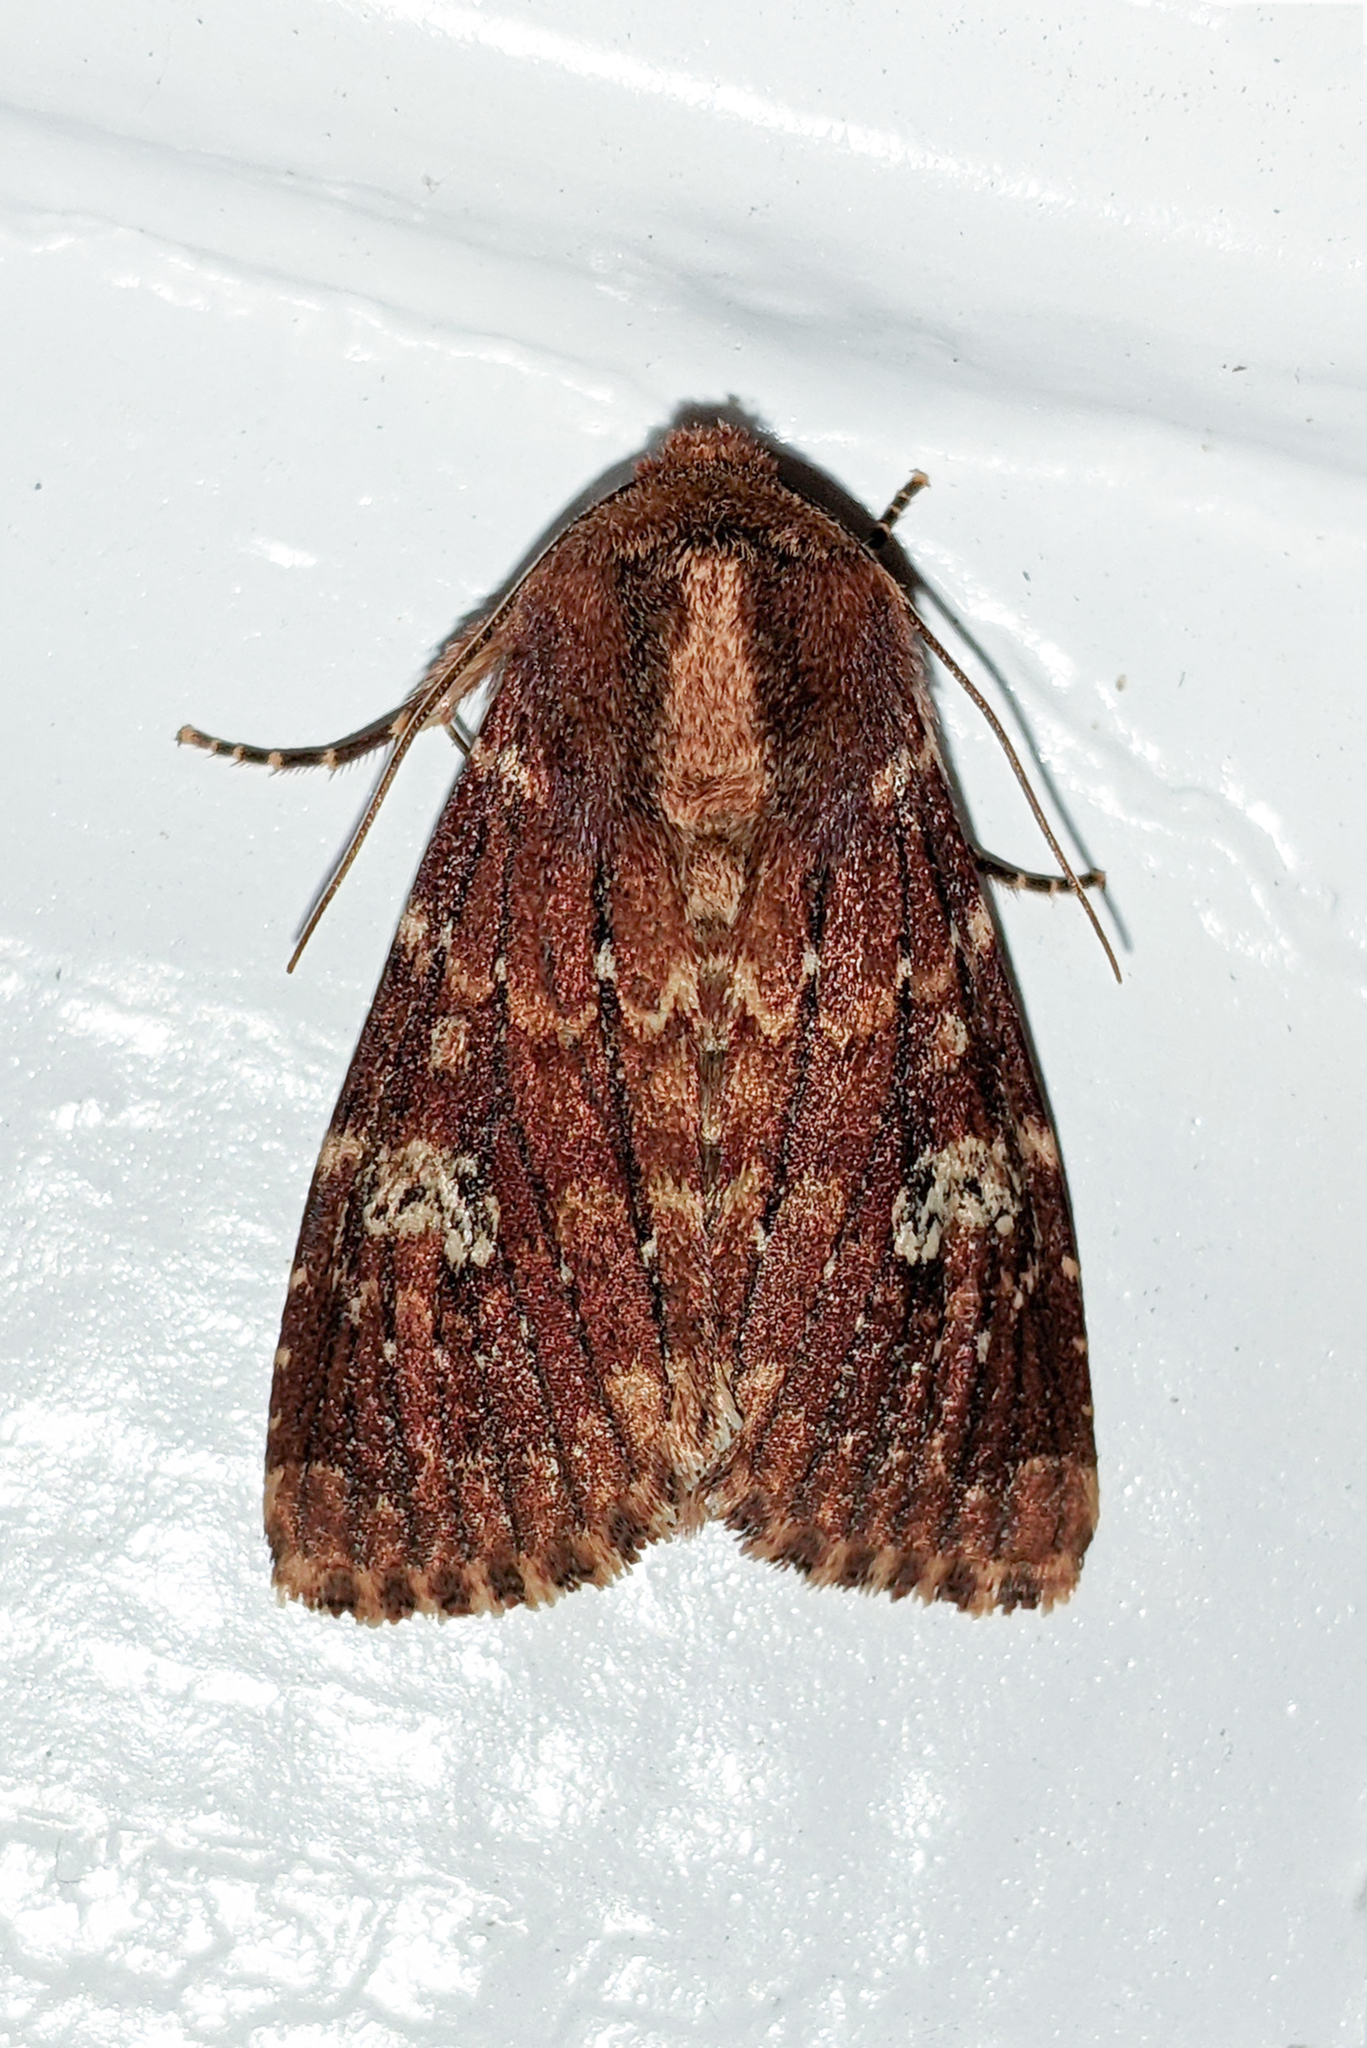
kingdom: Animalia
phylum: Arthropoda
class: Insecta
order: Lepidoptera
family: Noctuidae
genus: Sideridis
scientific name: Sideridis congermana
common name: German cousin moth
